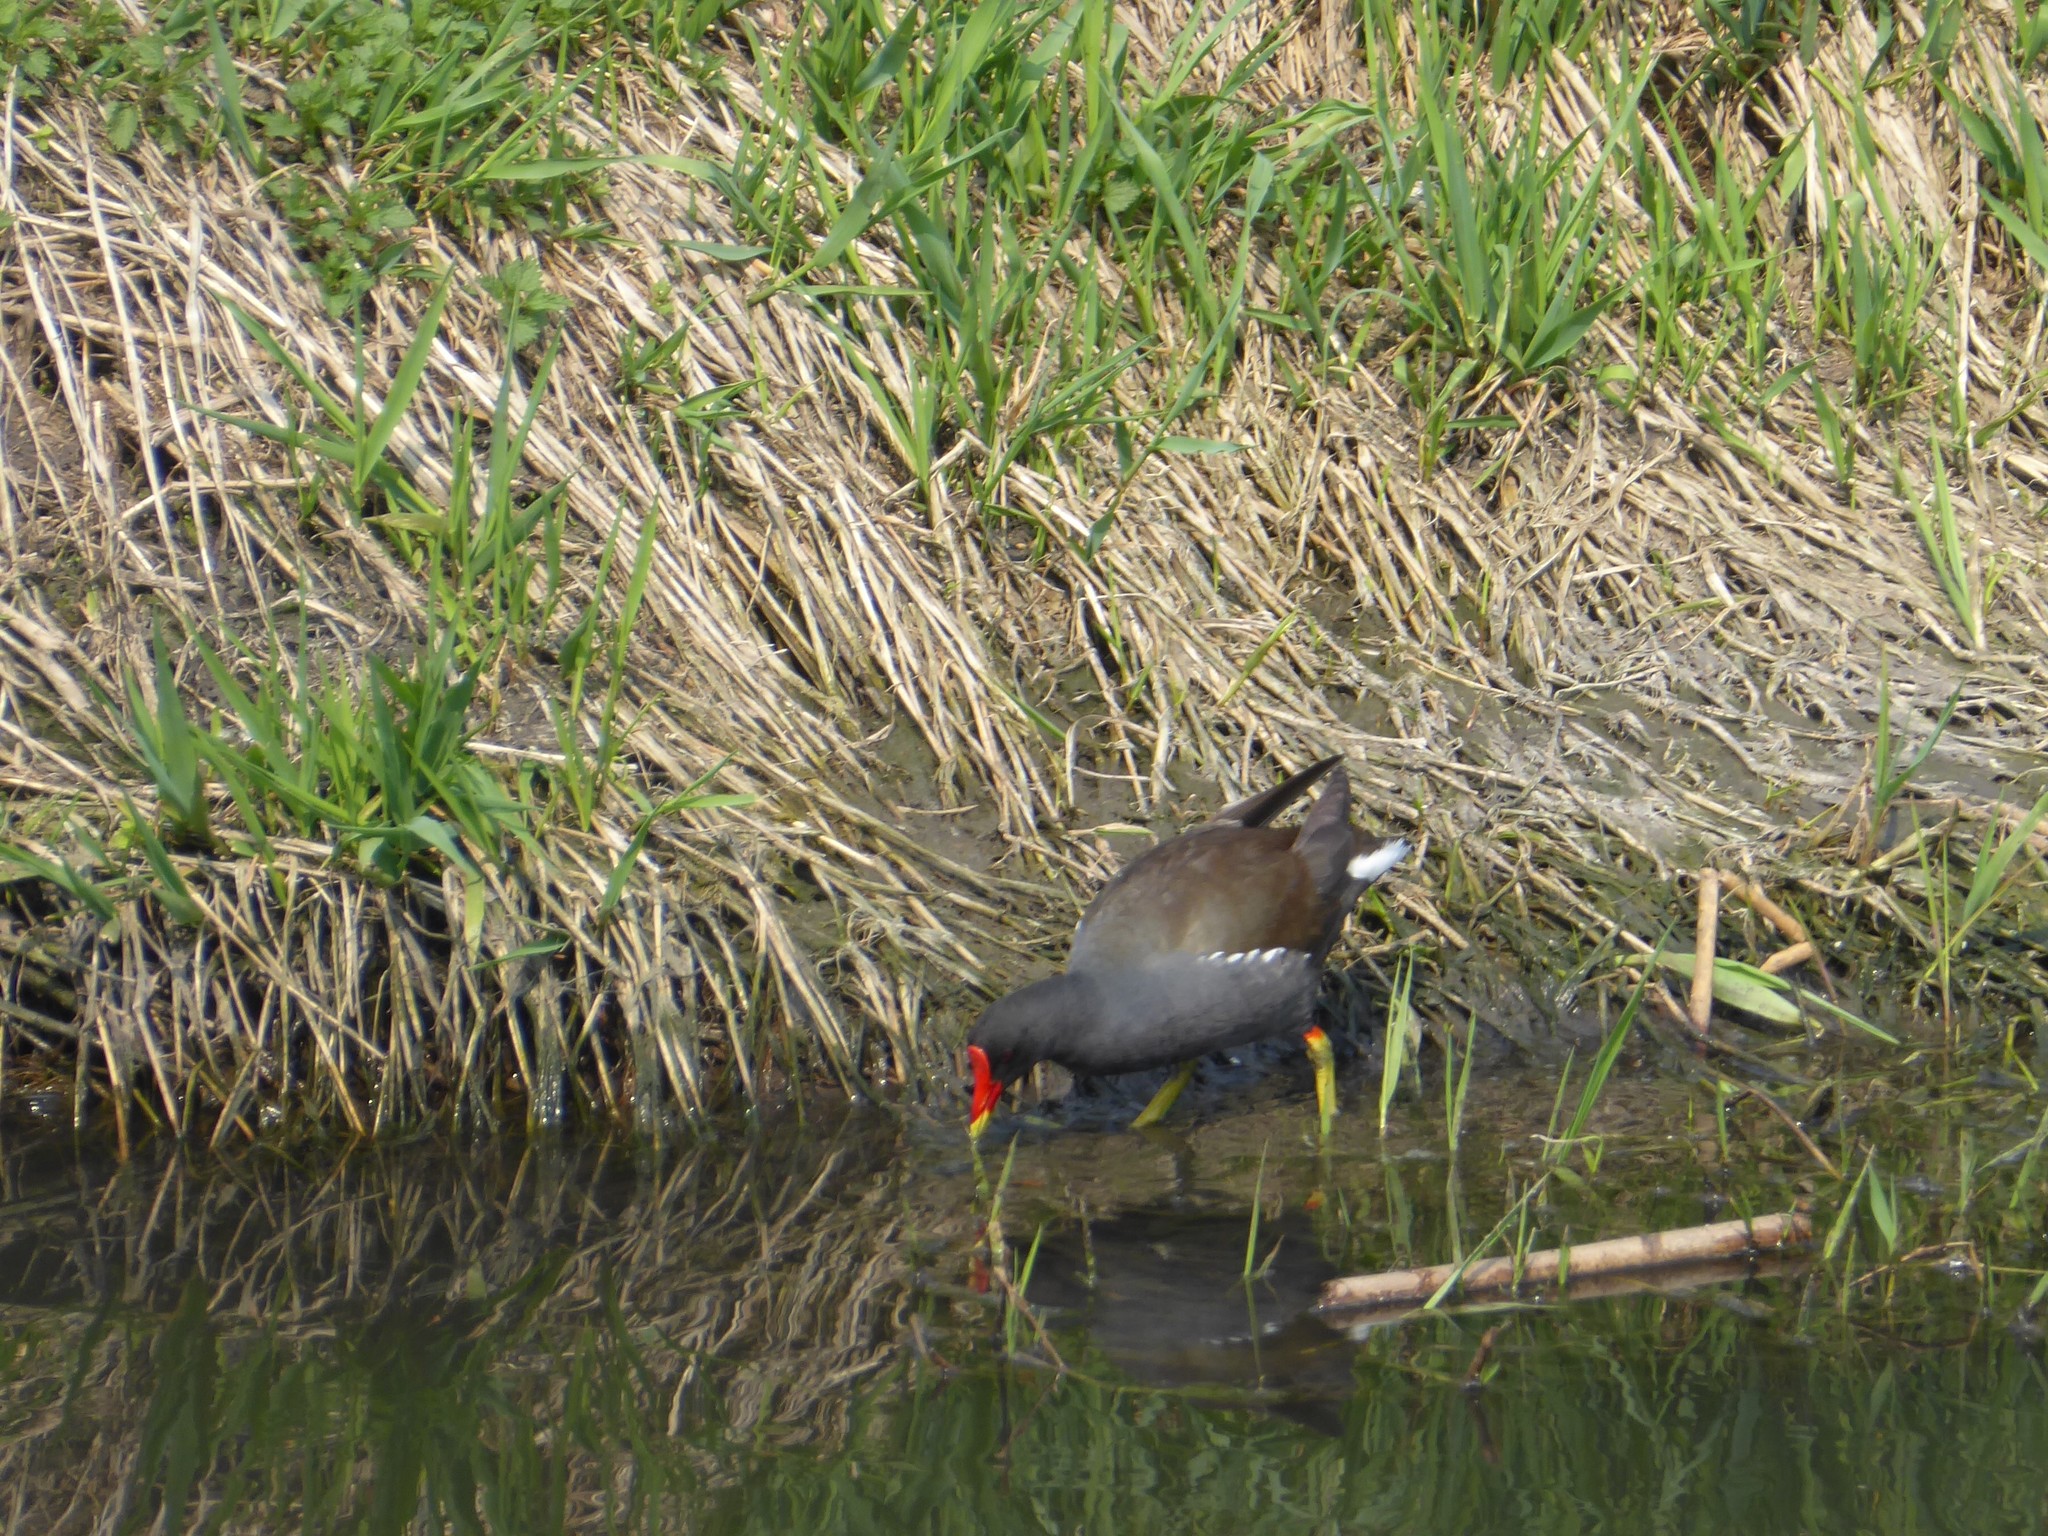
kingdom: Animalia
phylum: Chordata
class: Aves
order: Gruiformes
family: Rallidae
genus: Gallinula
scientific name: Gallinula chloropus
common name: Common moorhen
